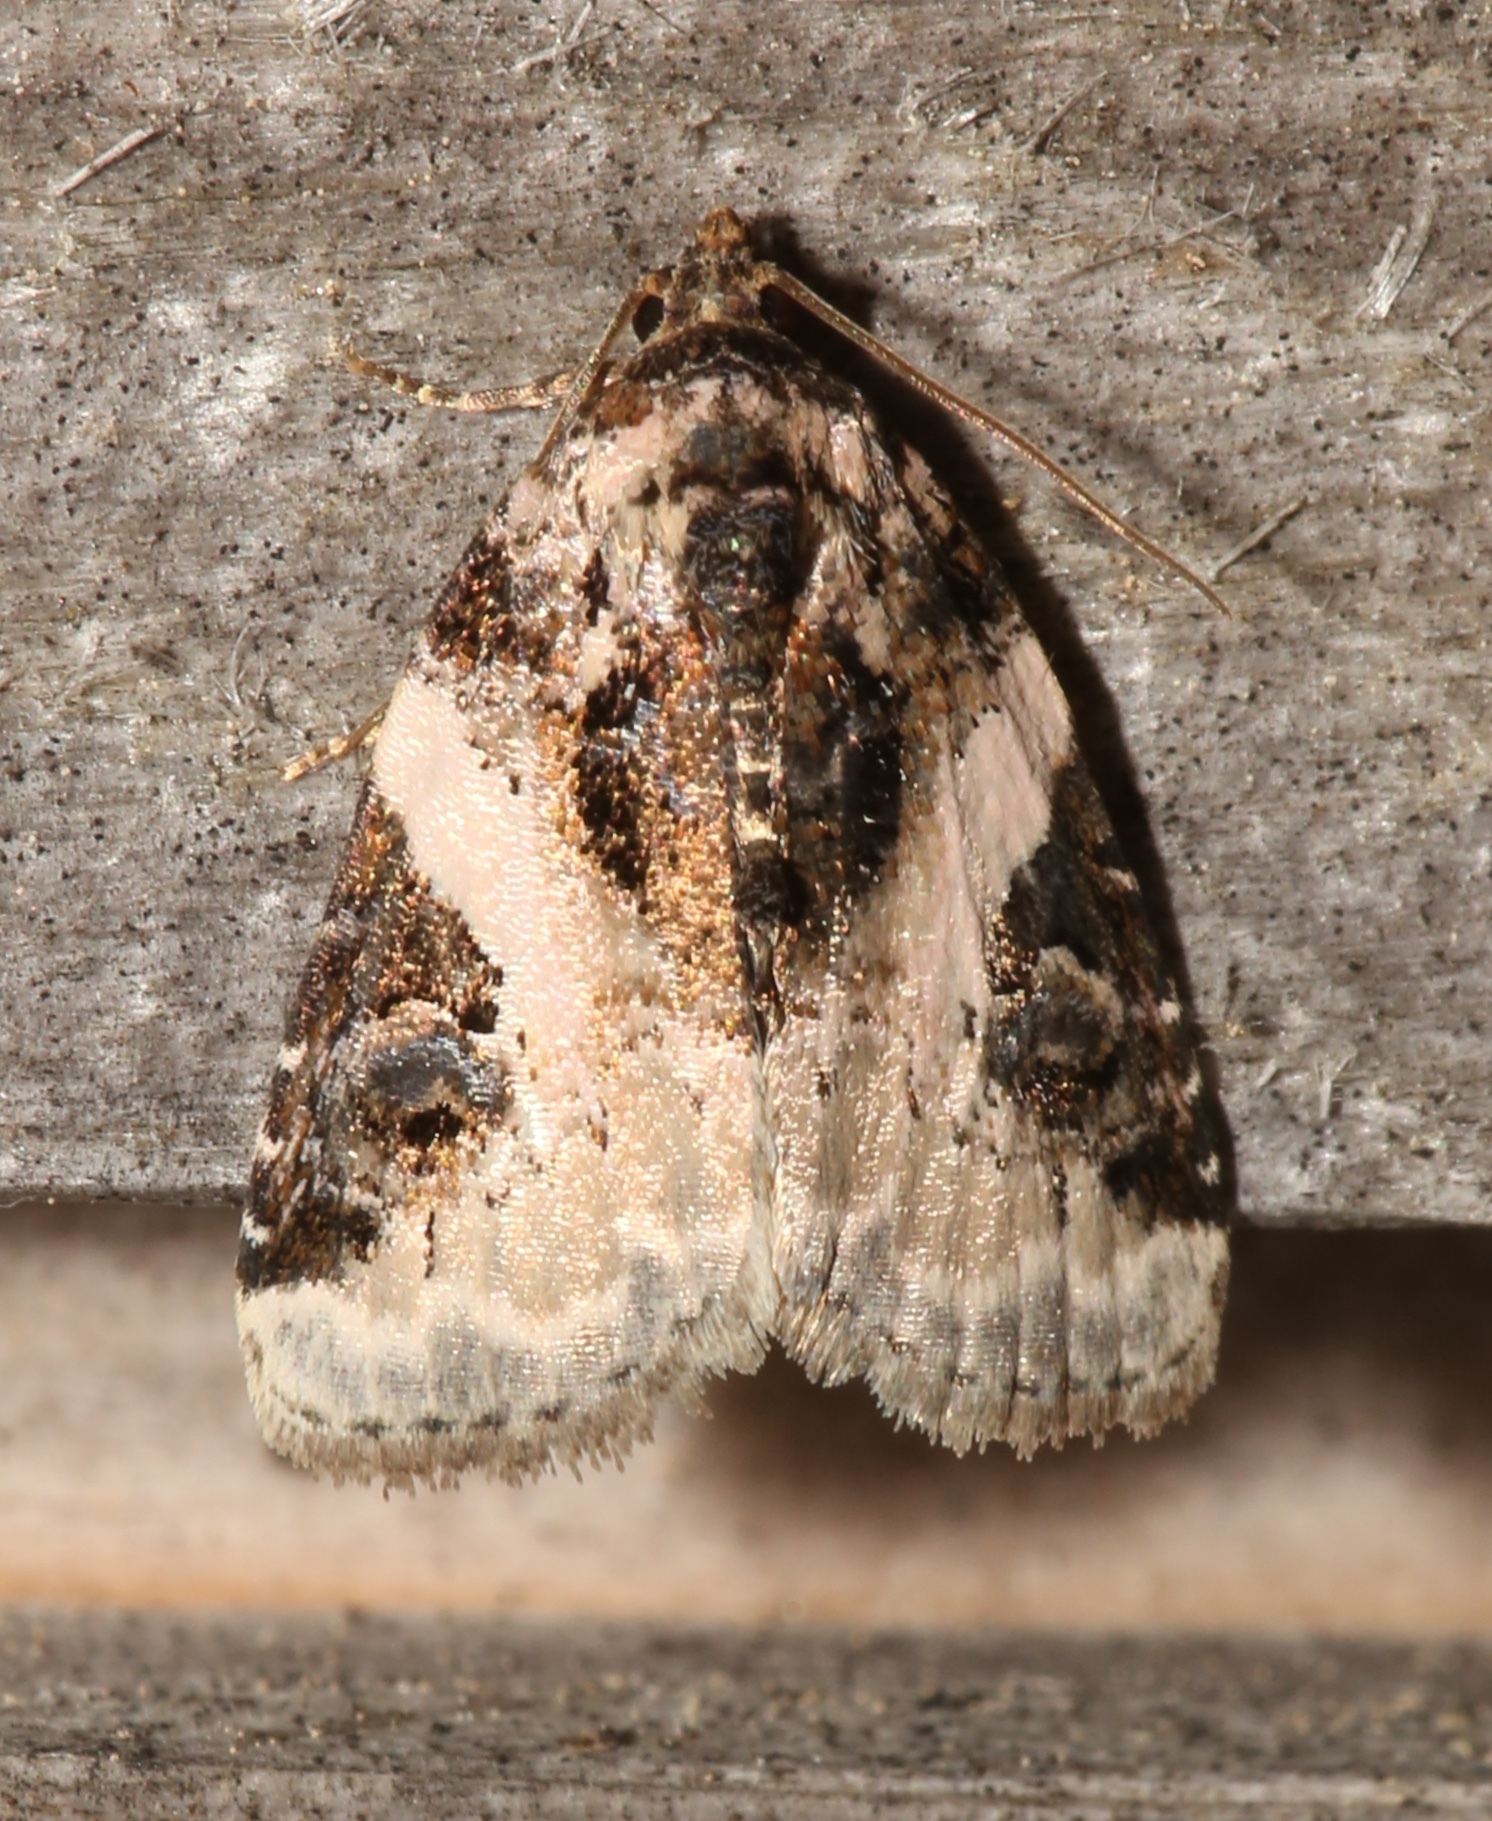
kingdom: Animalia
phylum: Arthropoda
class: Insecta
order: Lepidoptera
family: Noctuidae
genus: Pseudeustrotia
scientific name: Pseudeustrotia carneola
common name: Pink-barred lithacodia moth
